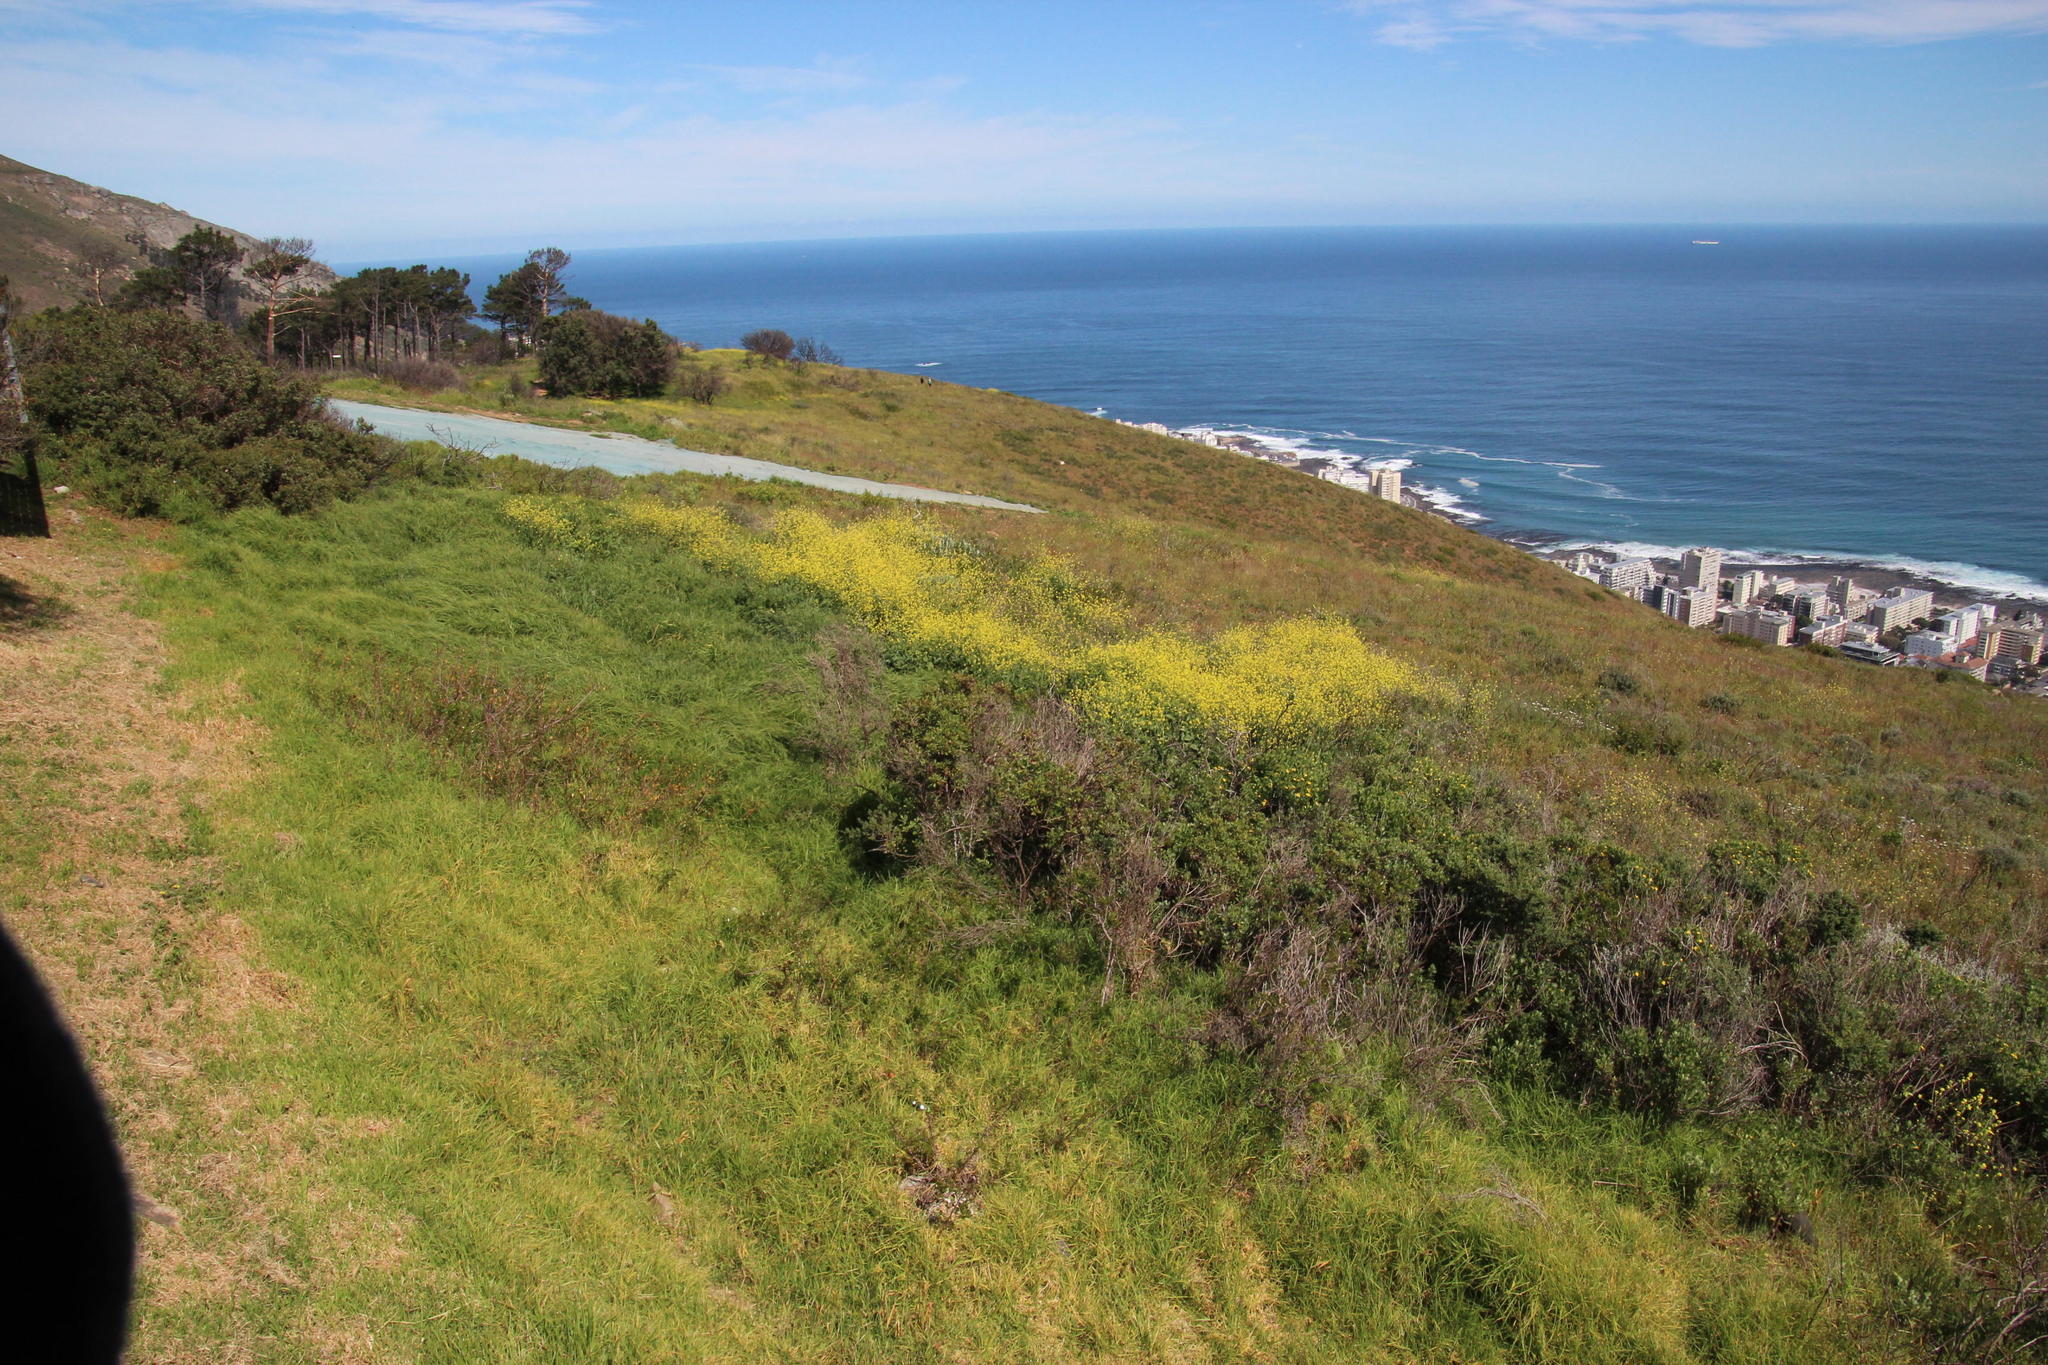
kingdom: Plantae
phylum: Tracheophyta
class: Liliopsida
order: Poales
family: Poaceae
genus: Cenchrus
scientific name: Cenchrus clandestinus
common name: Kikuyugrass
